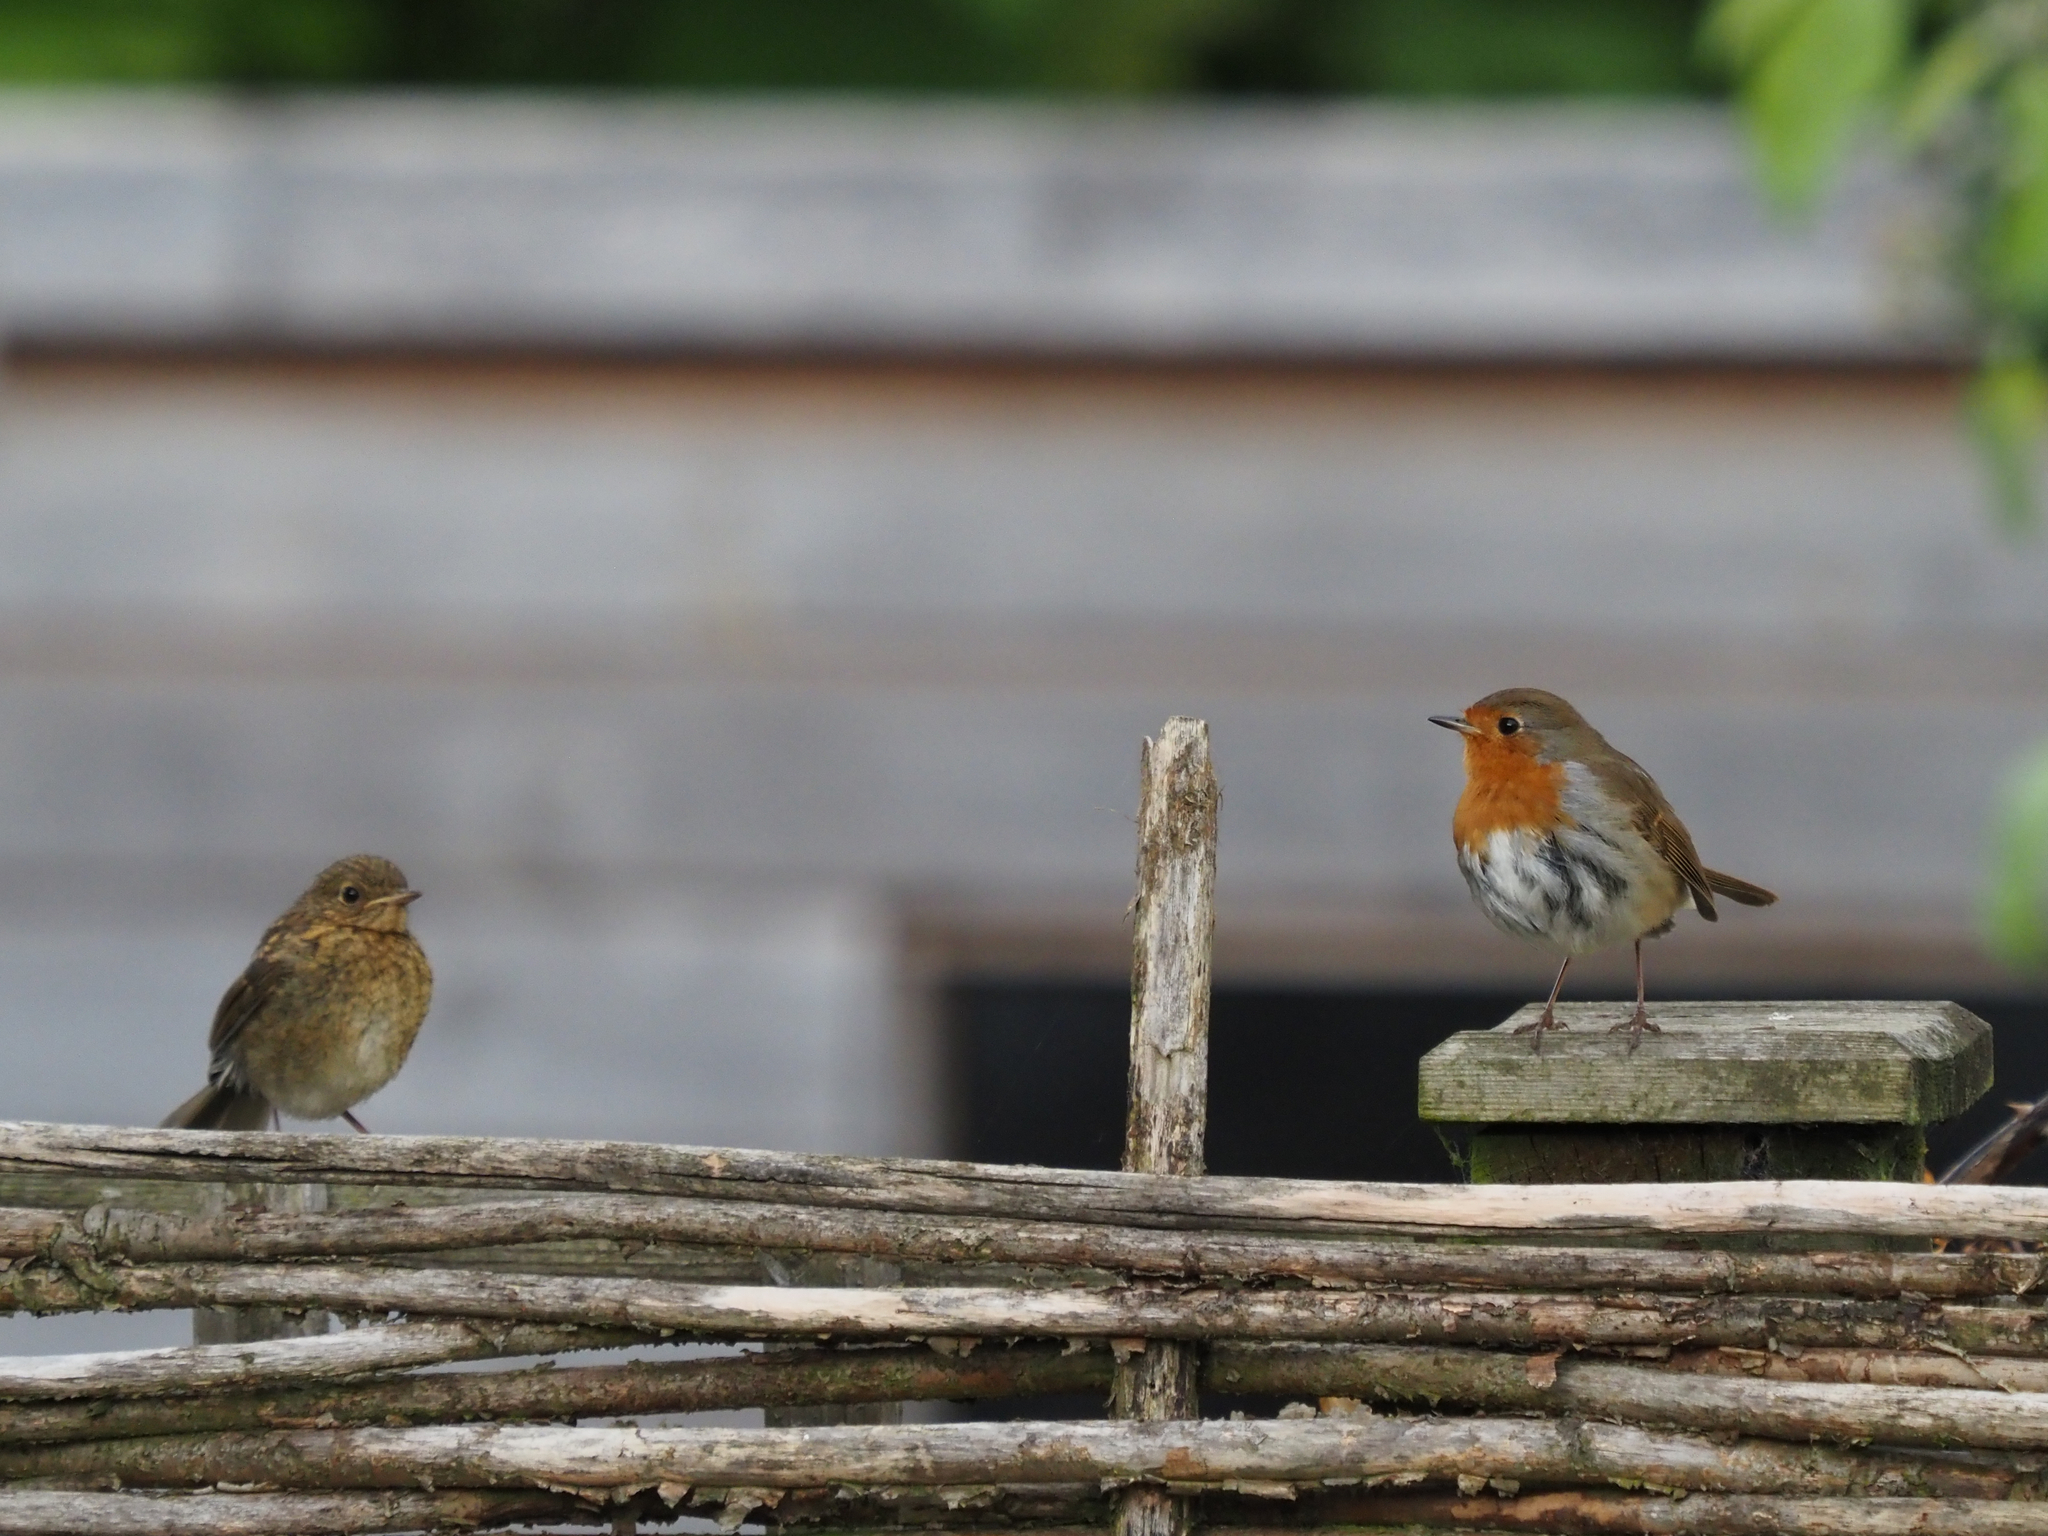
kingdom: Animalia
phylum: Chordata
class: Aves
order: Passeriformes
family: Muscicapidae
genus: Erithacus
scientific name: Erithacus rubecula
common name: European robin
